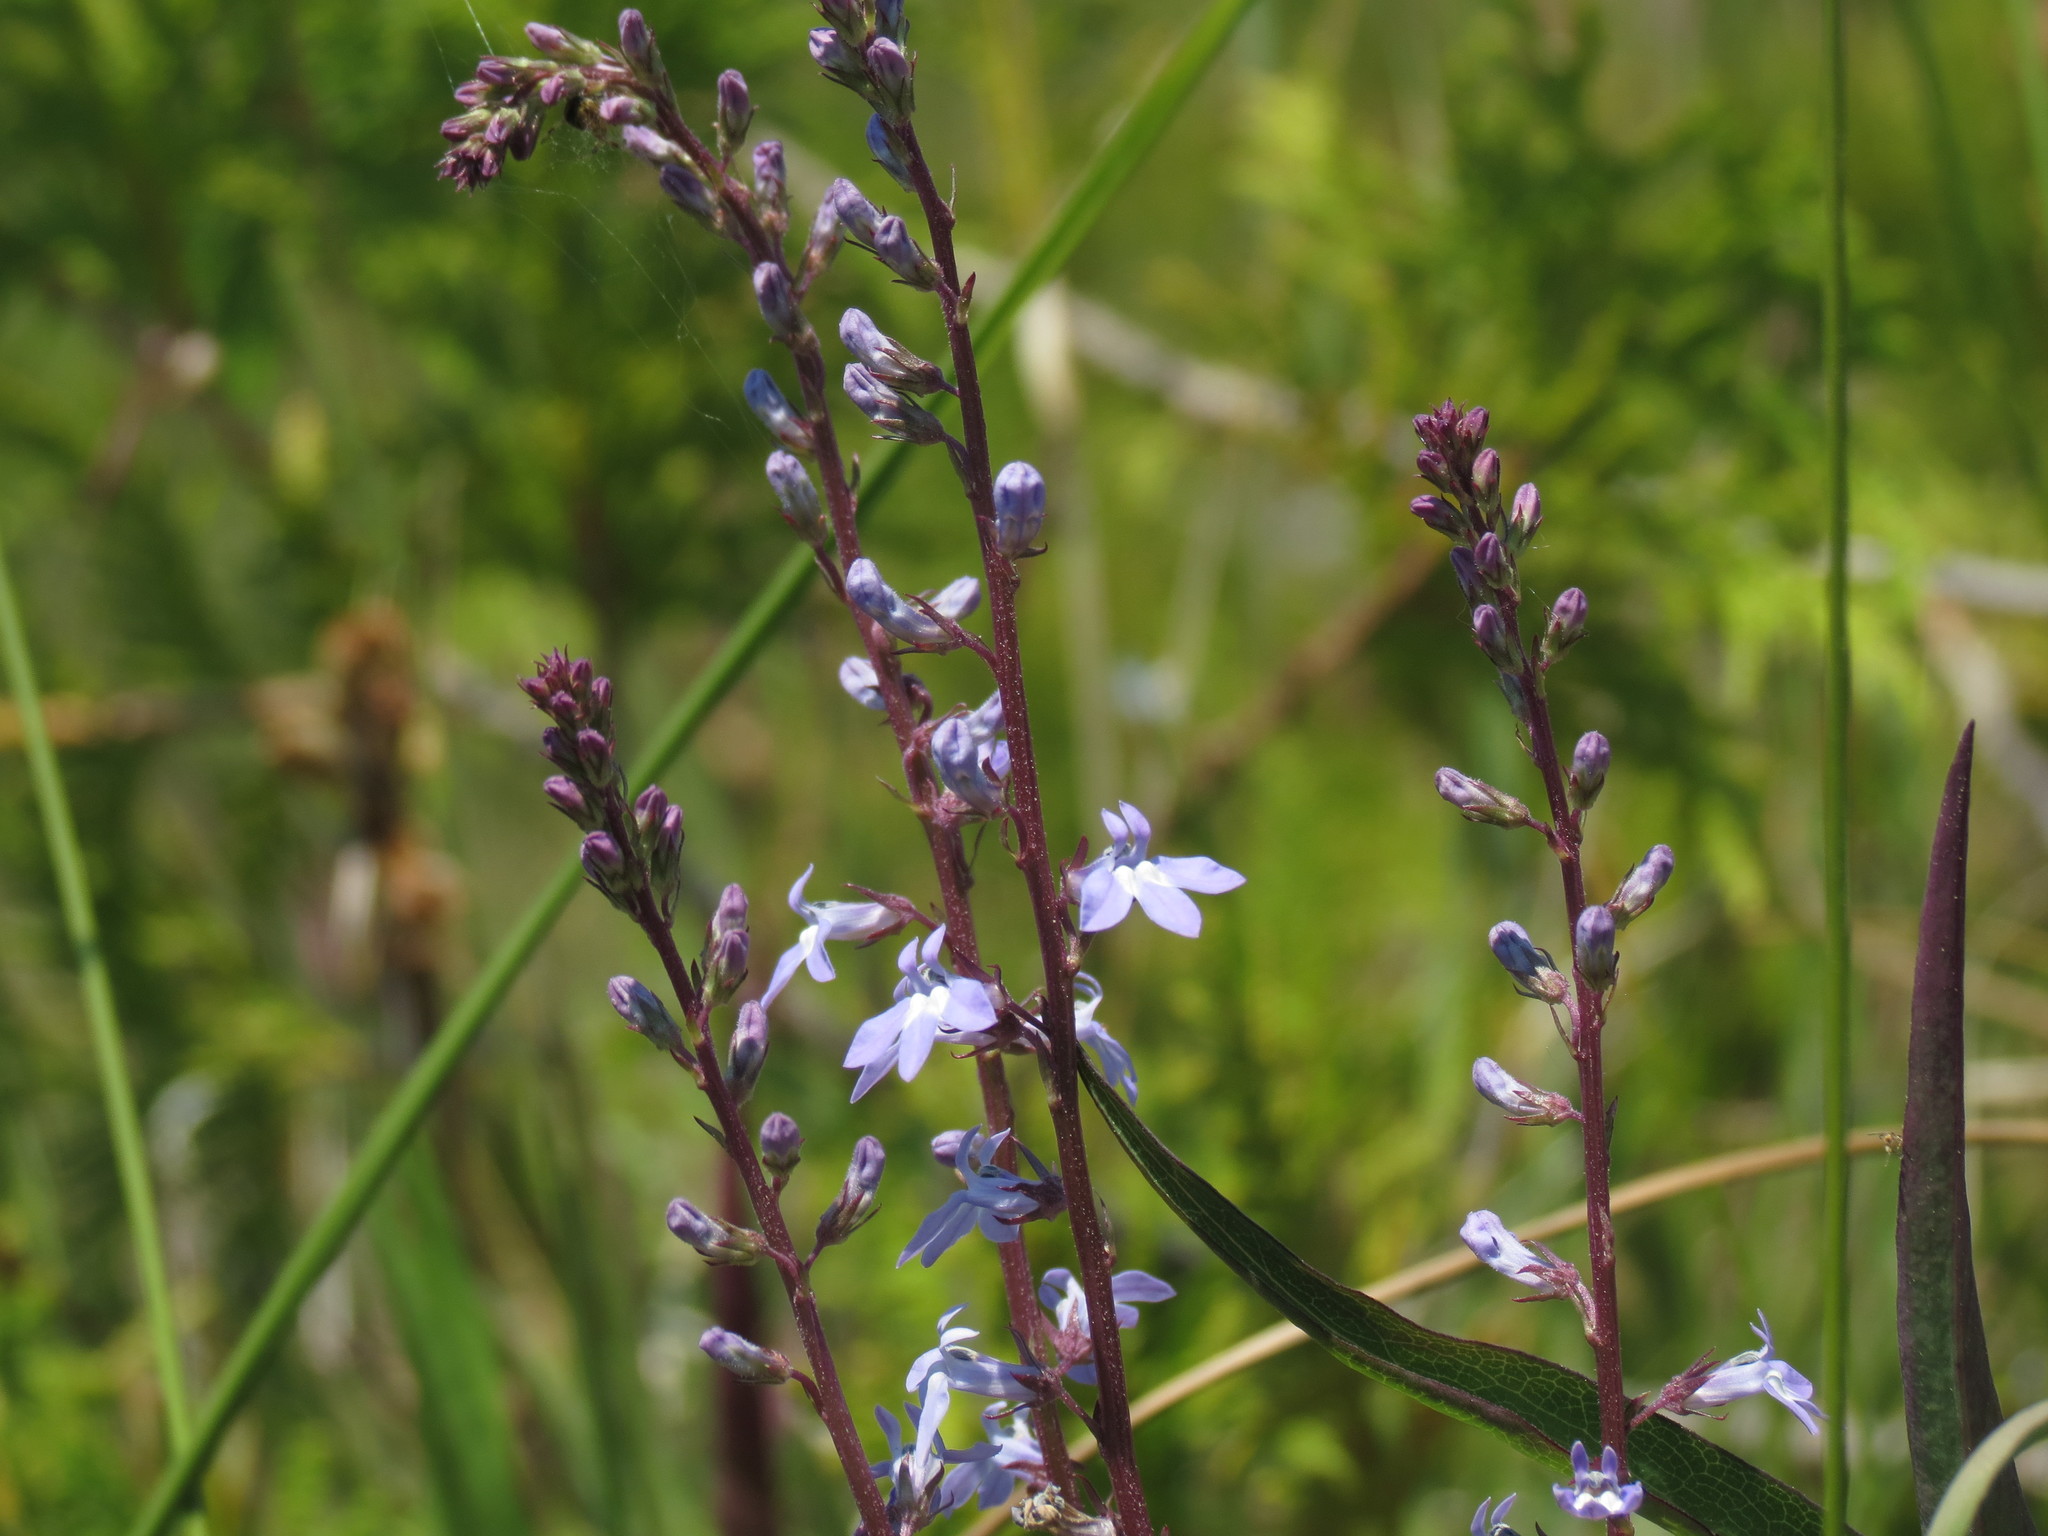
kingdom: Plantae
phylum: Tracheophyta
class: Magnoliopsida
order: Asterales
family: Campanulaceae
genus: Lobelia
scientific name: Lobelia spicata
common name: Pale-spike lobelia
